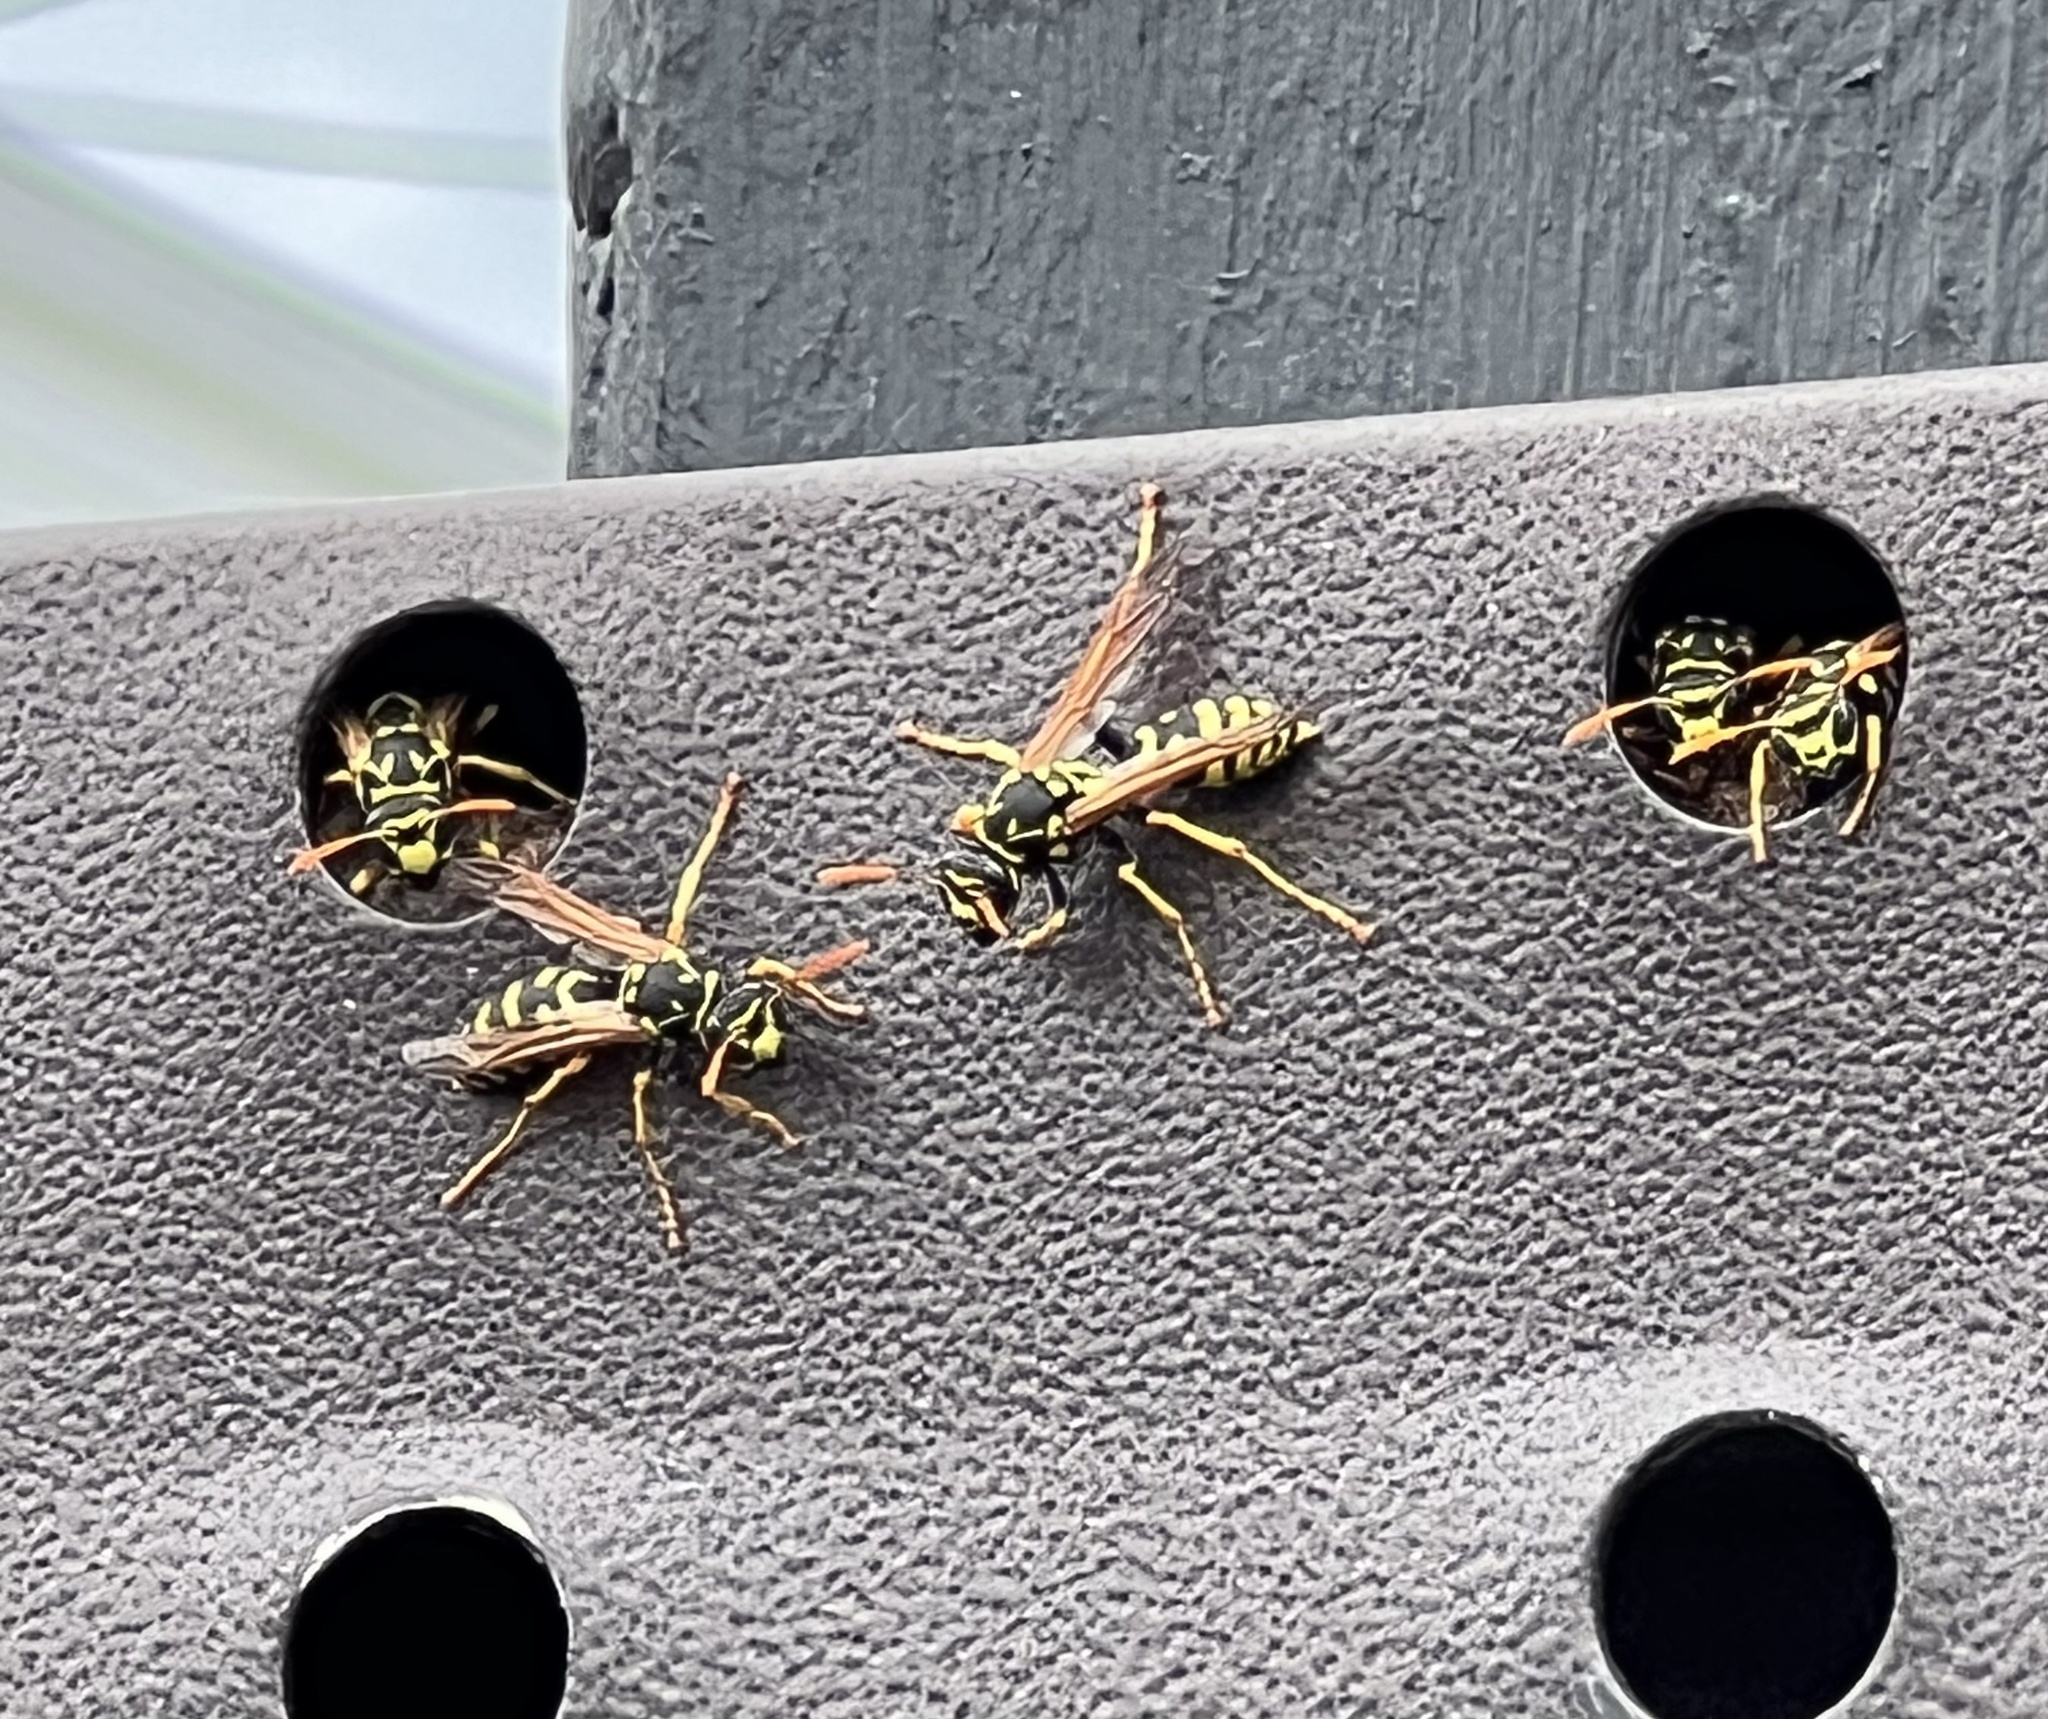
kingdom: Animalia
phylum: Arthropoda
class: Insecta
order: Hymenoptera
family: Eumenidae
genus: Polistes
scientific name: Polistes dominula
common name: Paper wasp
